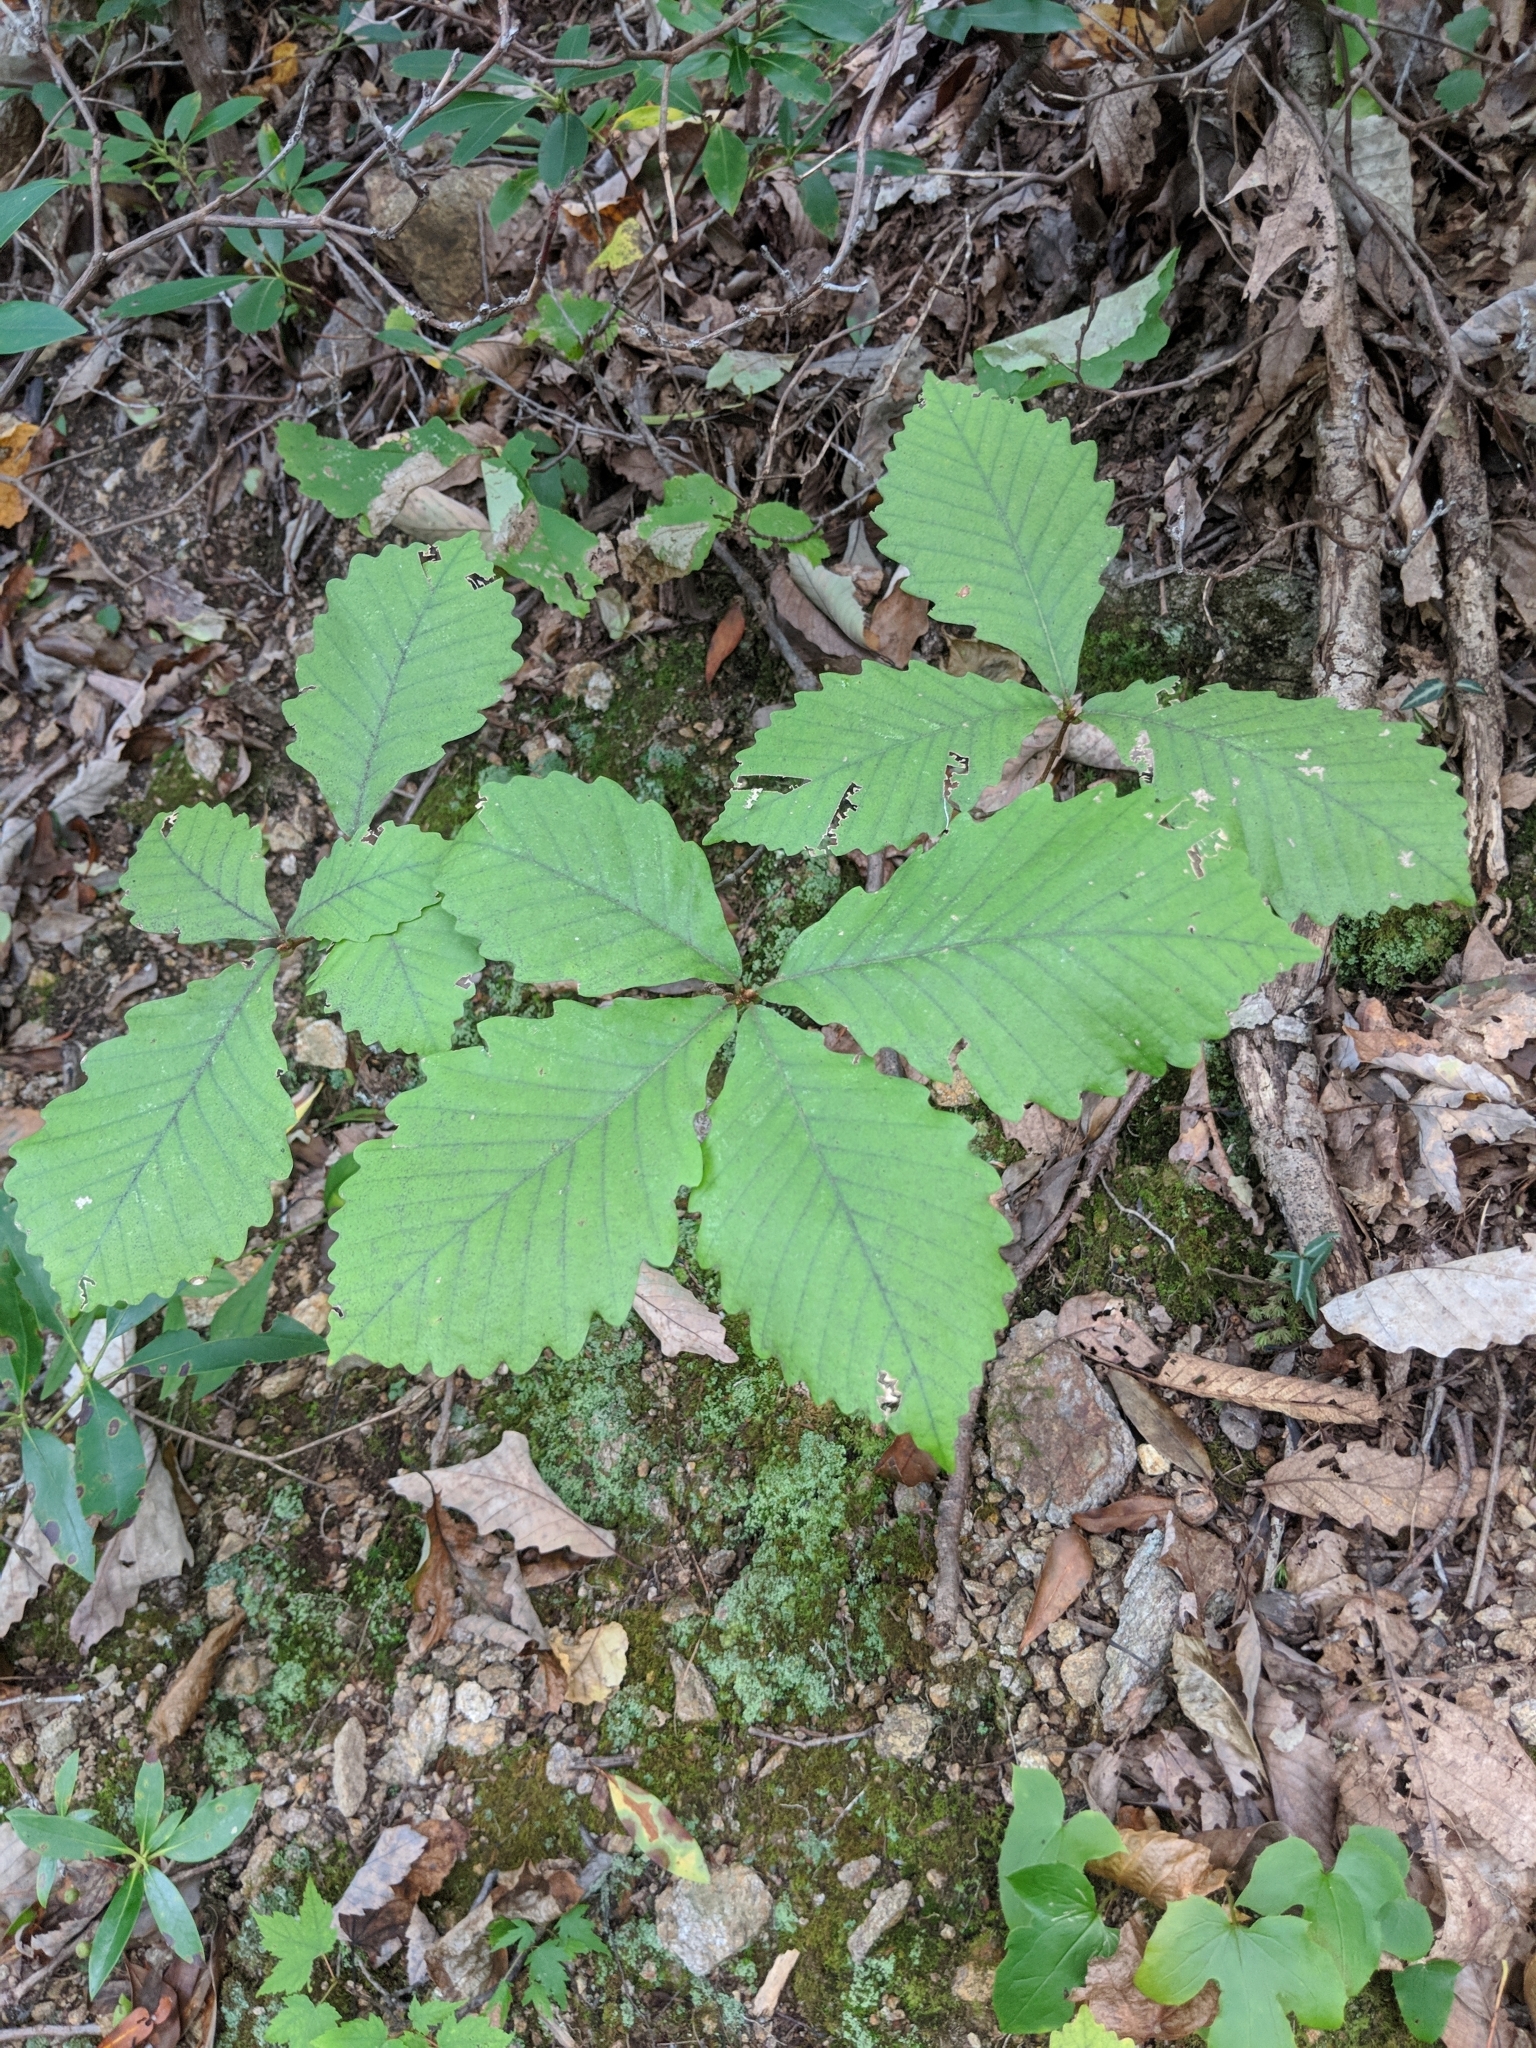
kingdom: Plantae
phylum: Tracheophyta
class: Magnoliopsida
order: Fagales
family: Fagaceae
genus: Quercus
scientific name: Quercus montana
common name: Chestnut oak
